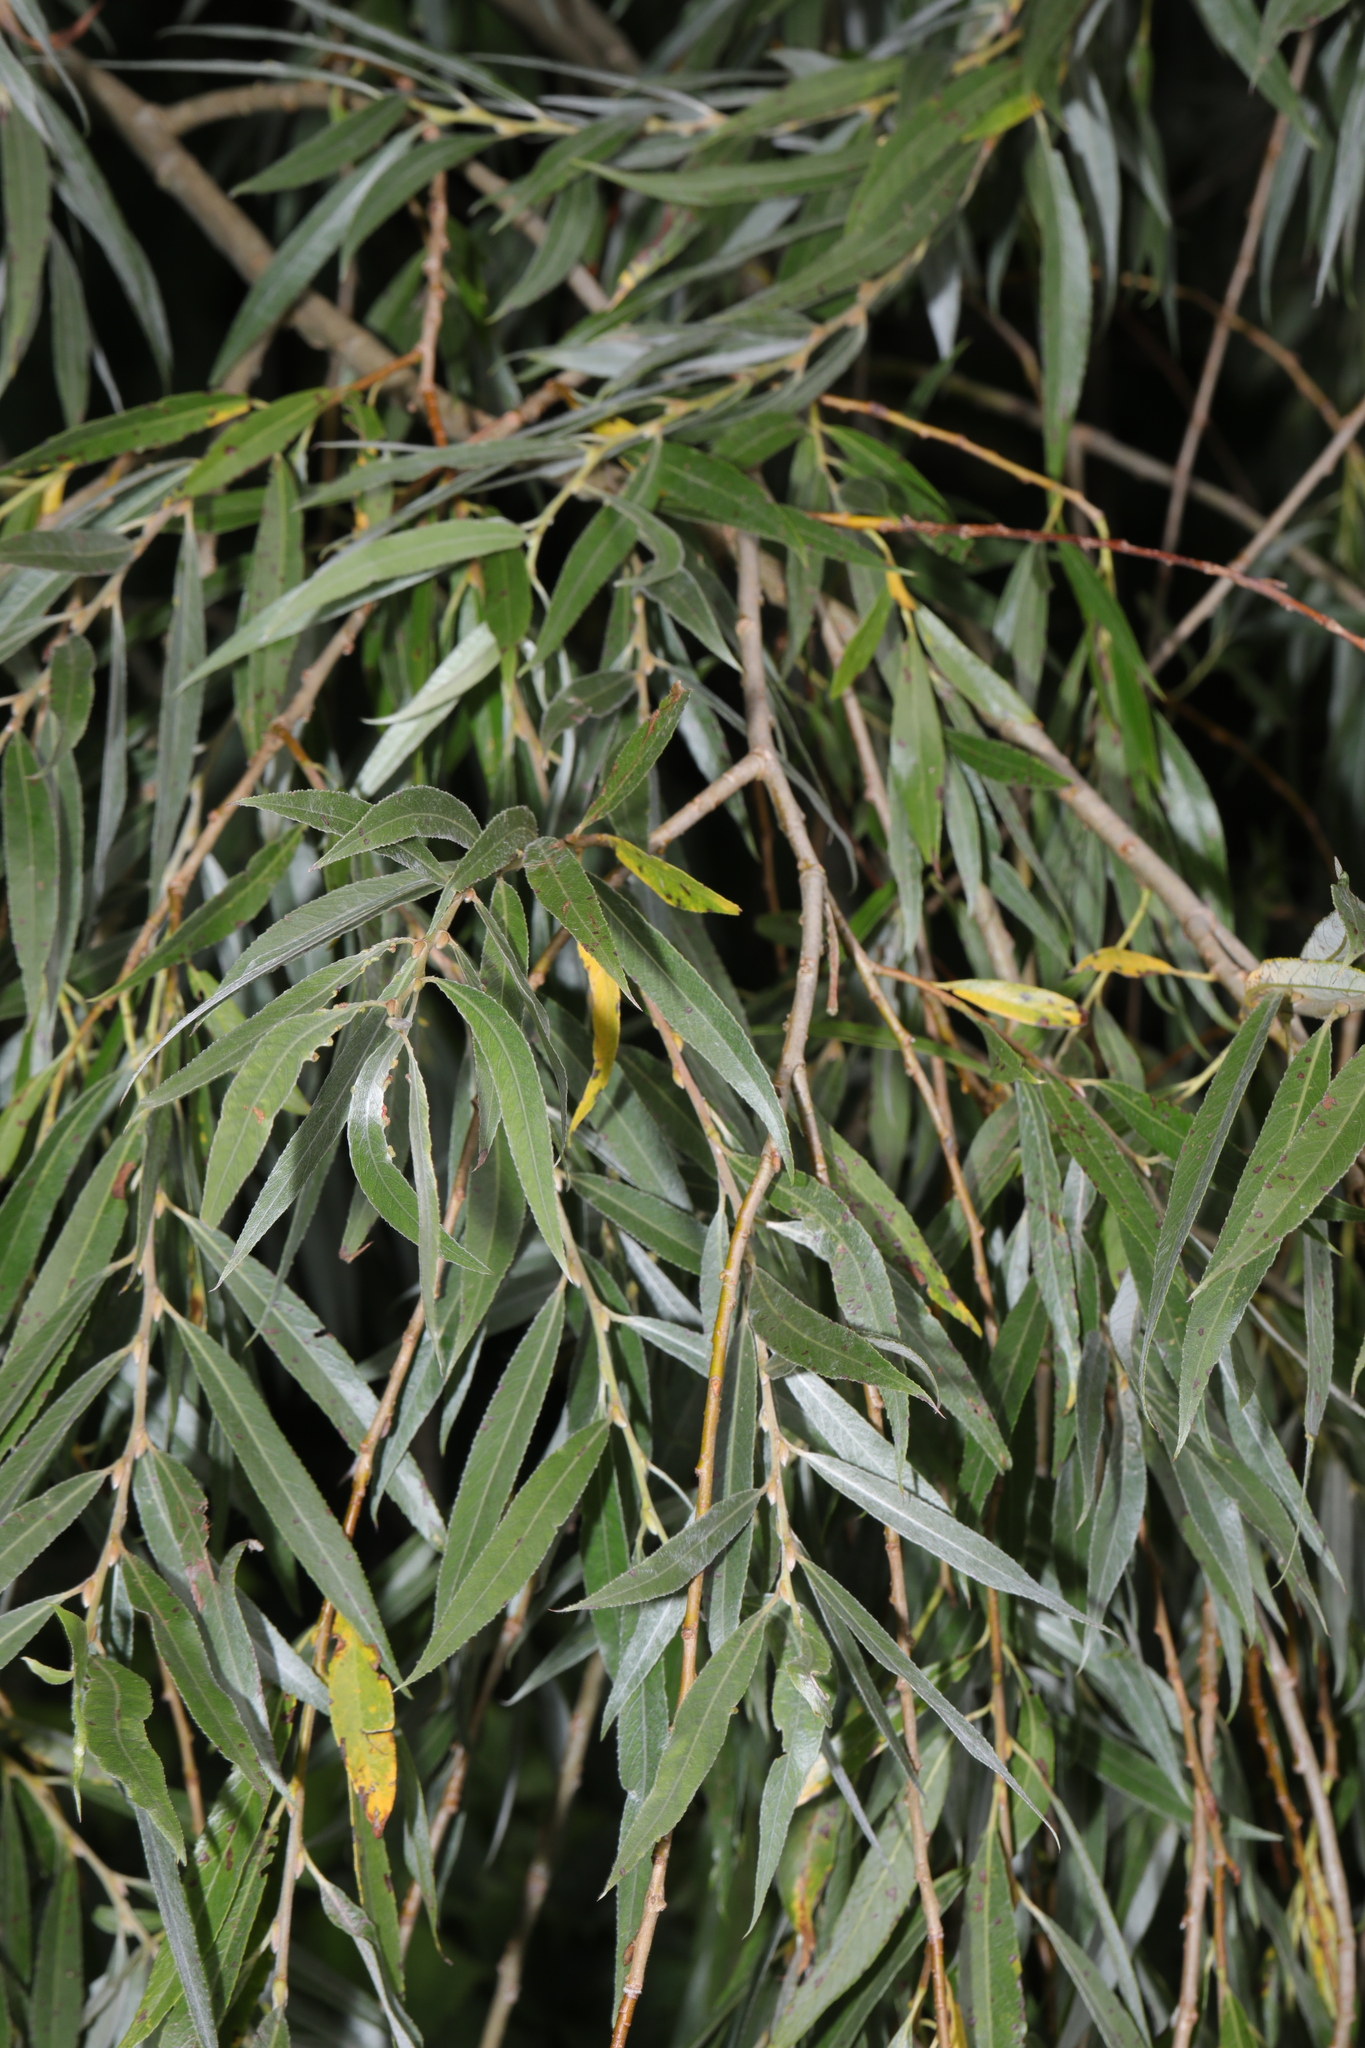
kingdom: Plantae
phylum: Tracheophyta
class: Magnoliopsida
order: Malpighiales
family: Salicaceae
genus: Salix
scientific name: Salix alba
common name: White willow
